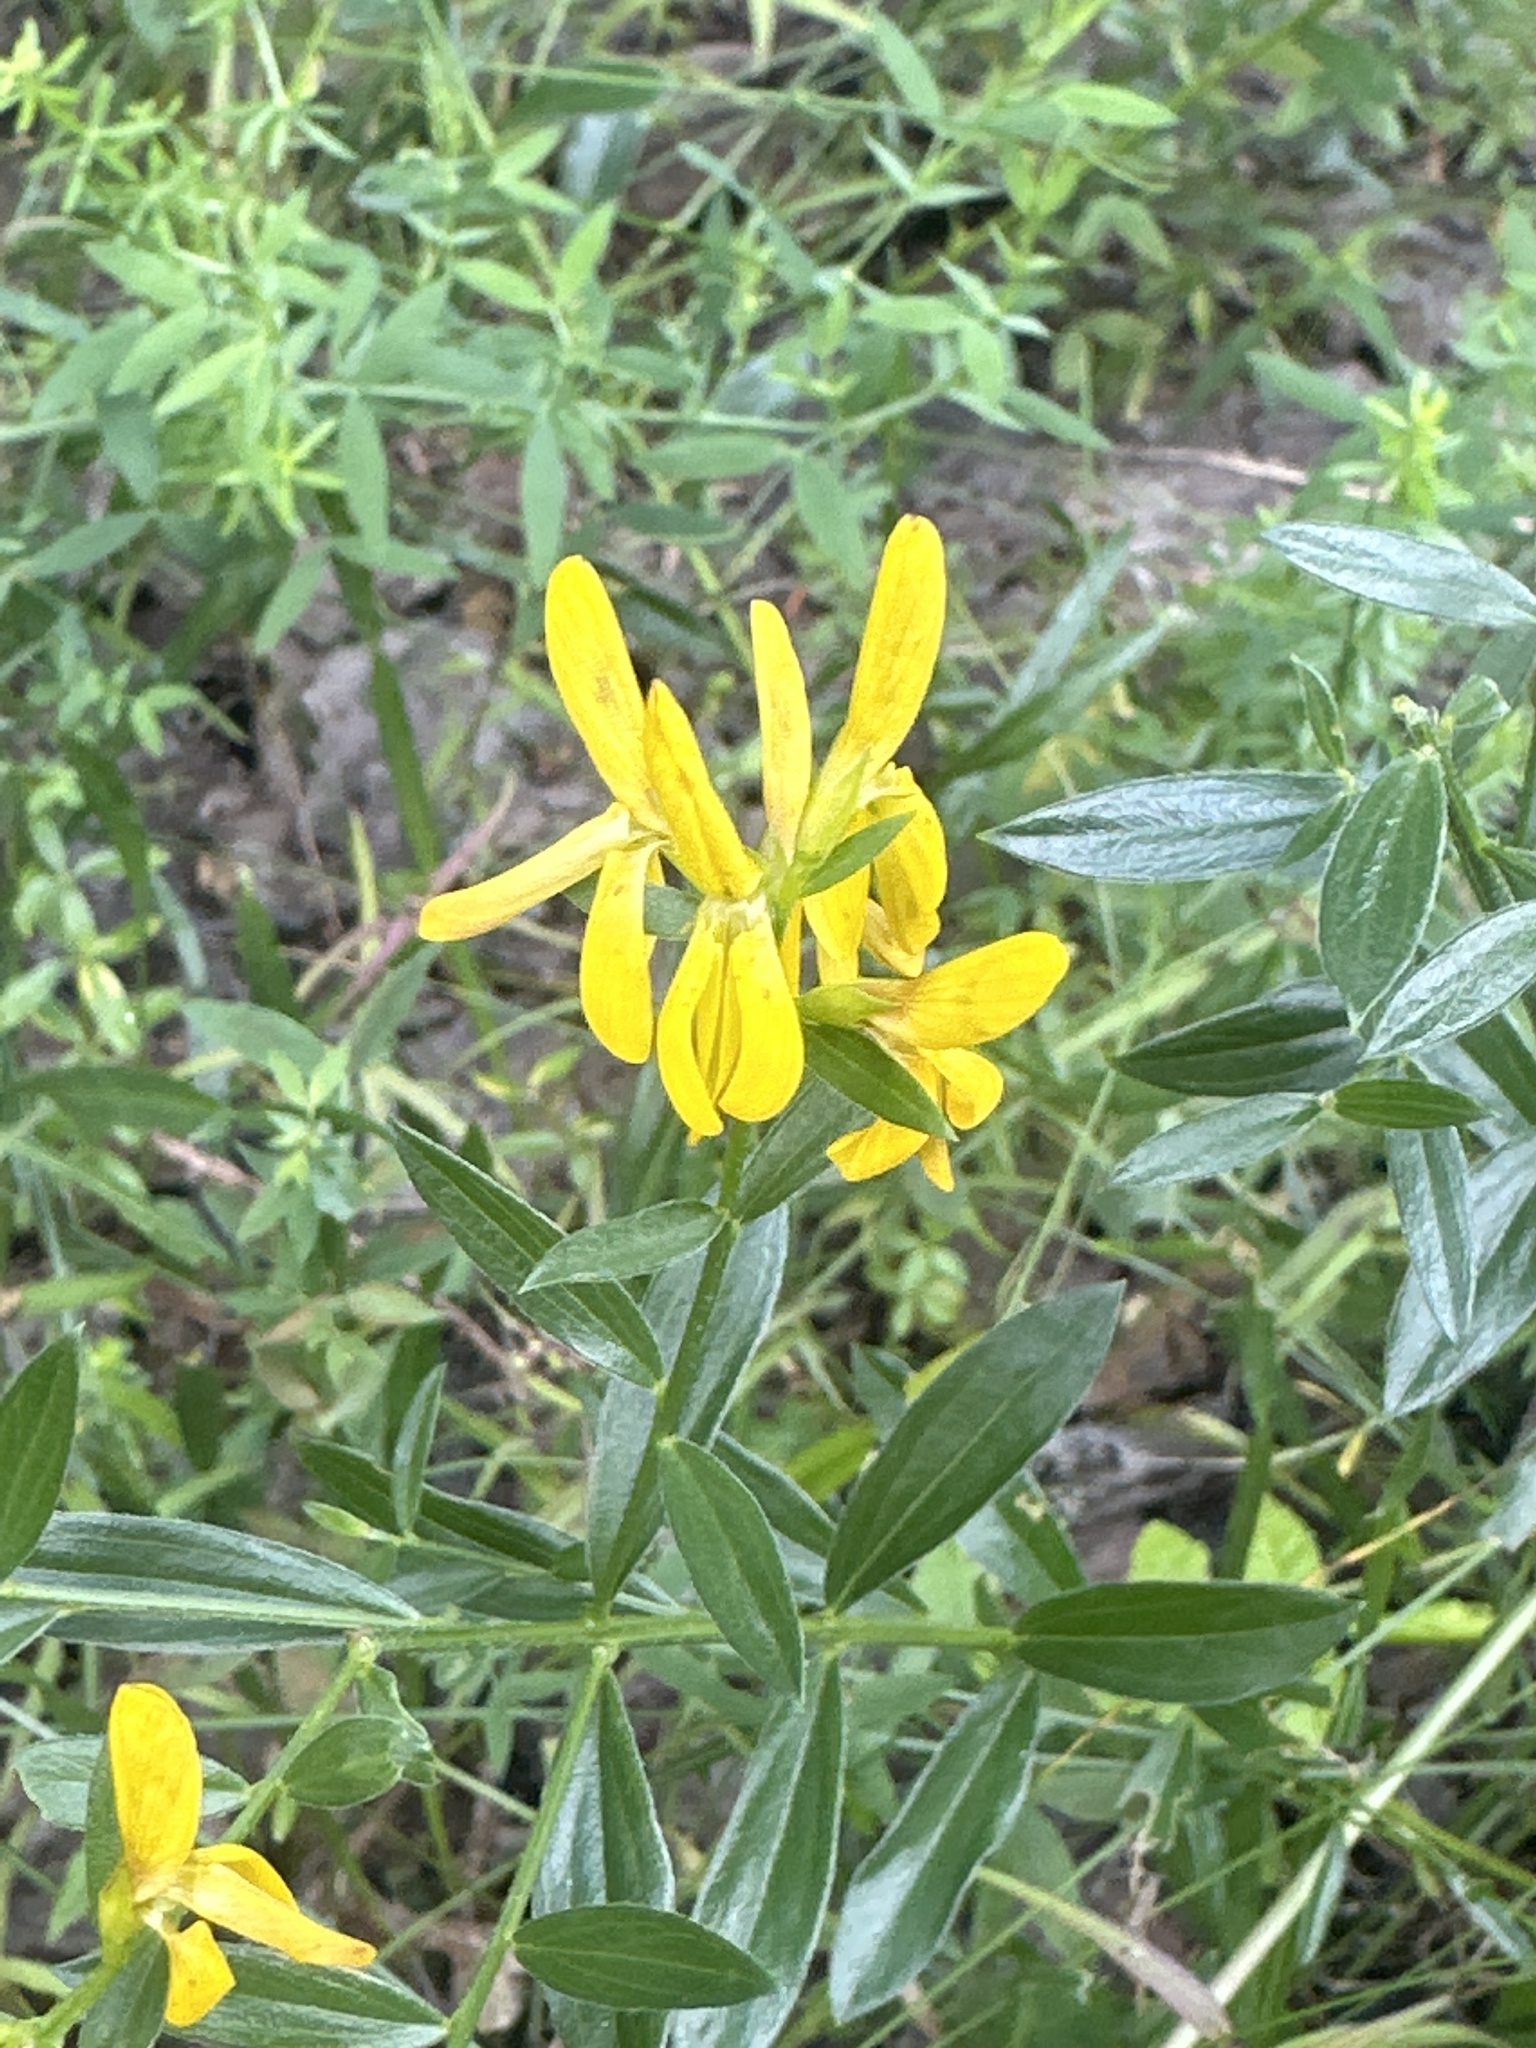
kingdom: Plantae
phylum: Tracheophyta
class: Magnoliopsida
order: Fabales
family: Fabaceae
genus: Genista
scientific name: Genista tinctoria
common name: Dyer's greenweed
